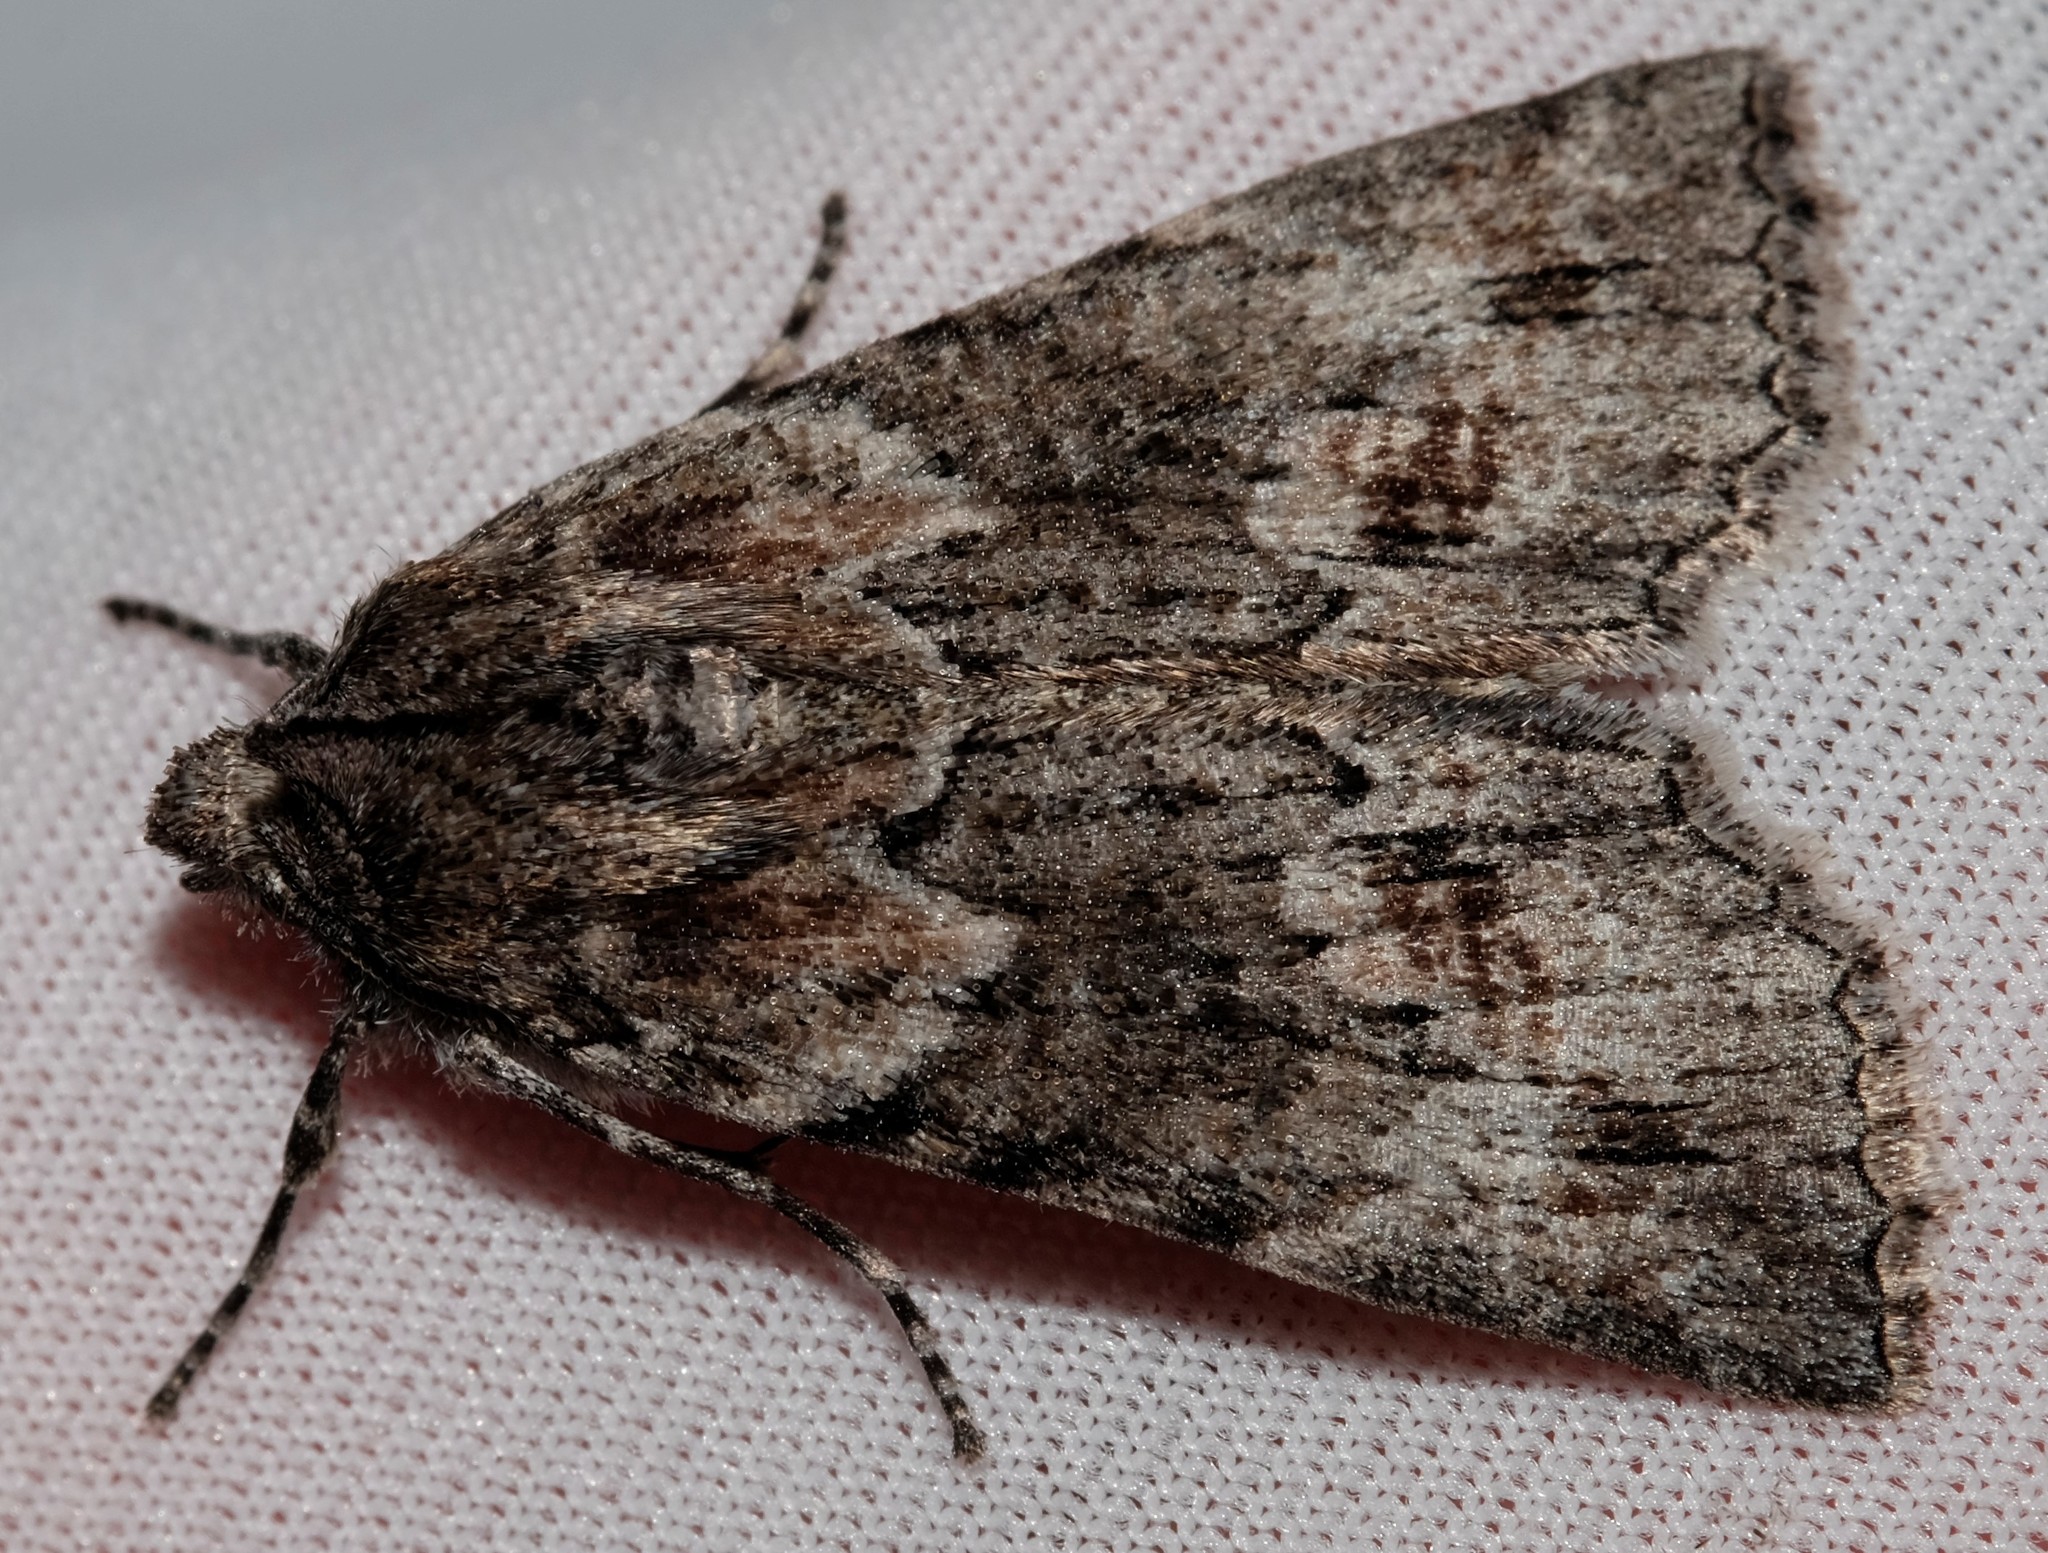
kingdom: Animalia
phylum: Arthropoda
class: Insecta
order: Lepidoptera
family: Geometridae
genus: Nisista
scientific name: Nisista galearia
